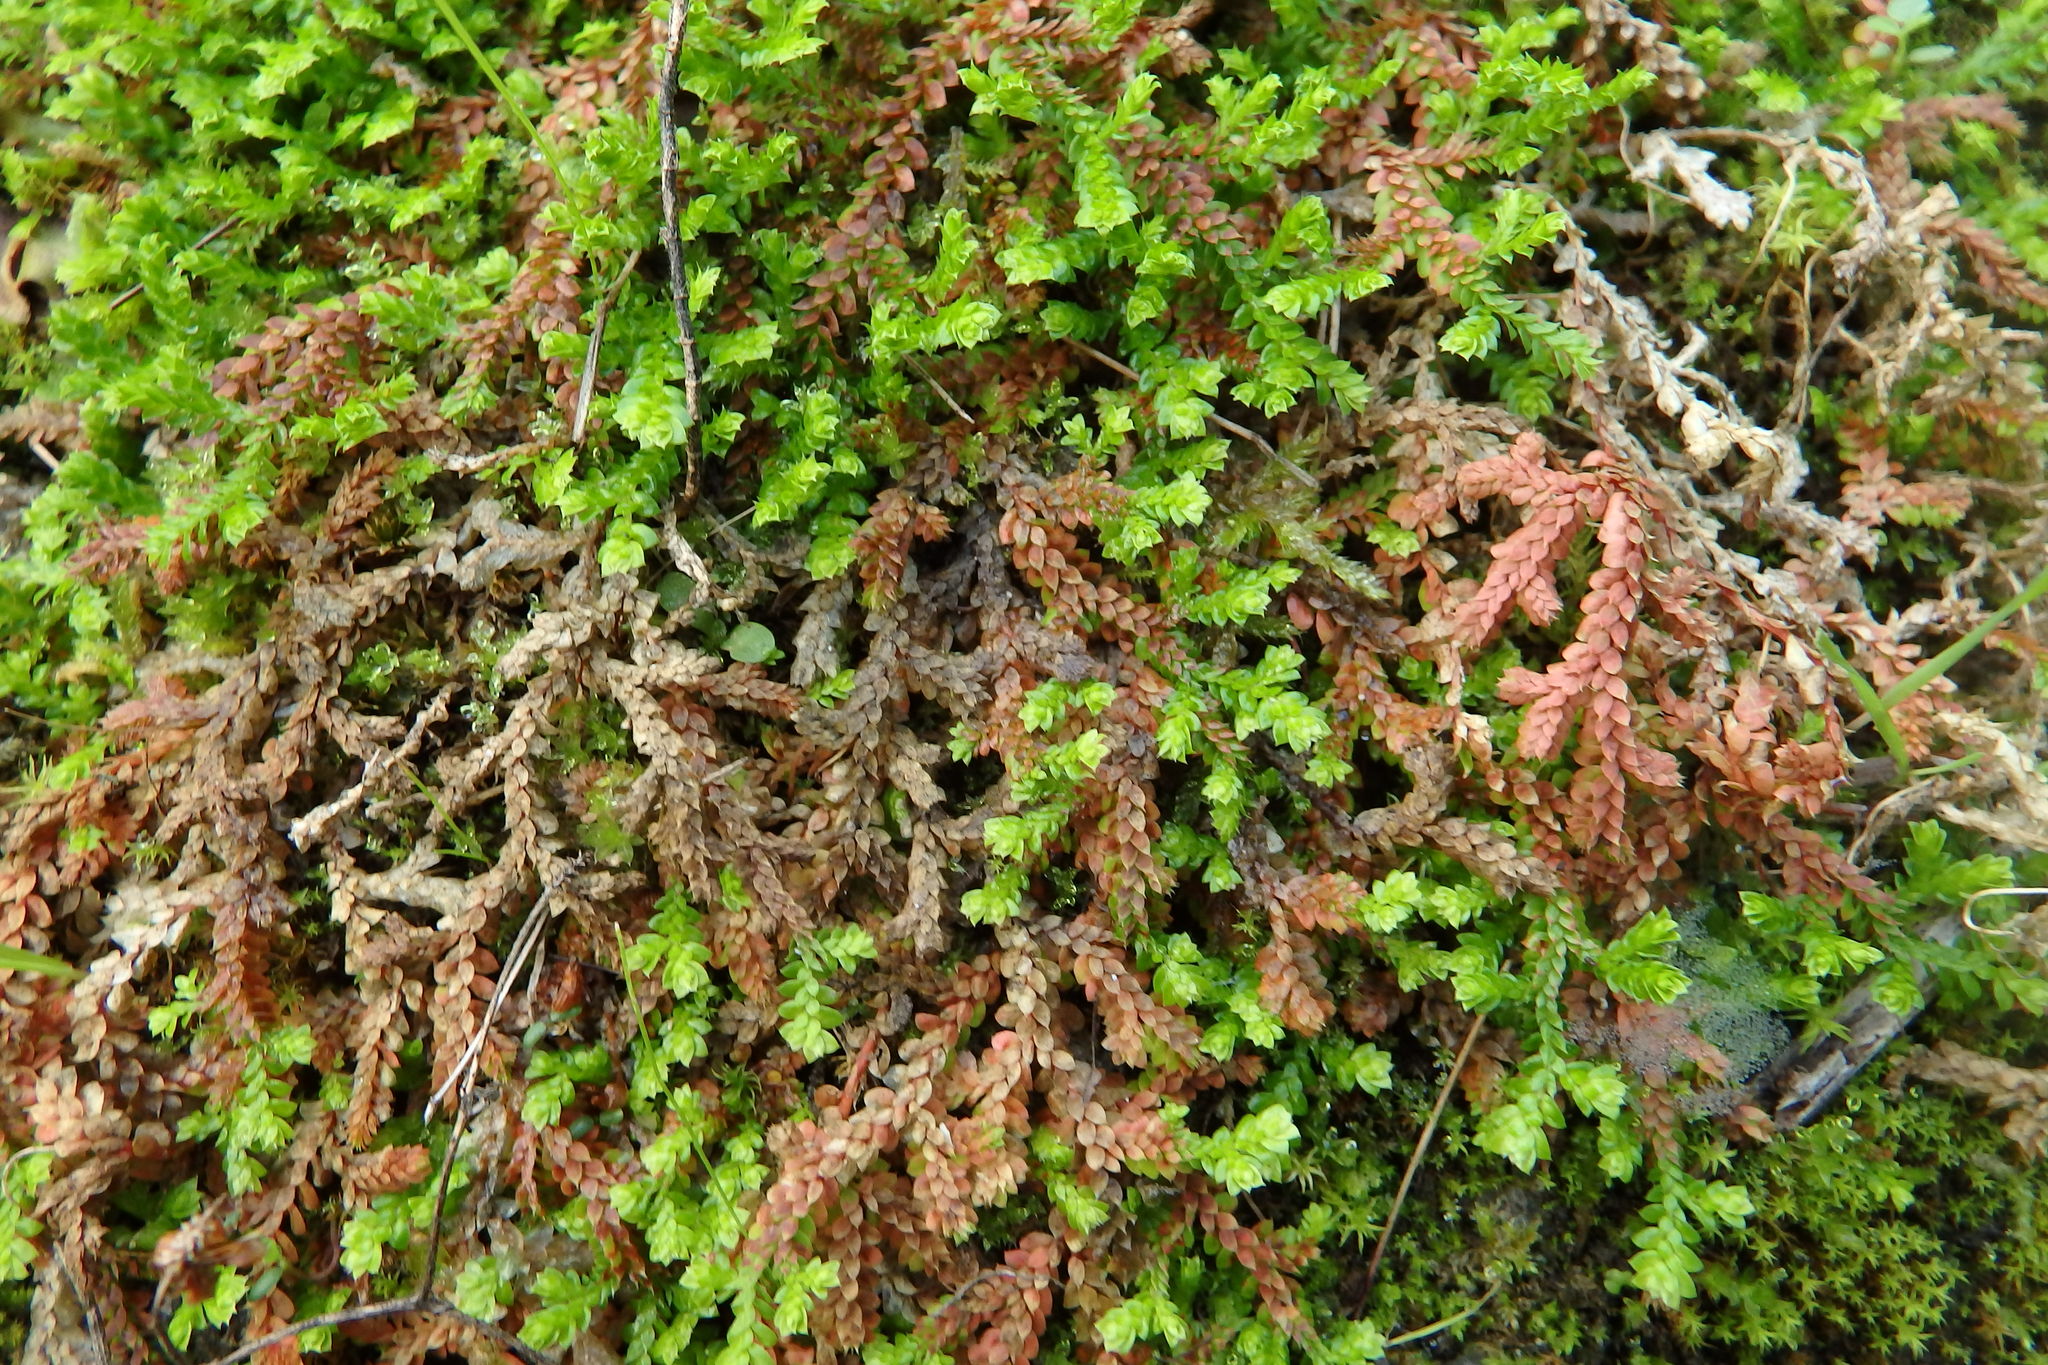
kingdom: Plantae
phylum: Tracheophyta
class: Lycopodiopsida
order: Selaginellales
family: Selaginellaceae
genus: Selaginella
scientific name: Selaginella denticulata
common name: Toothed-leaved clubmoss
